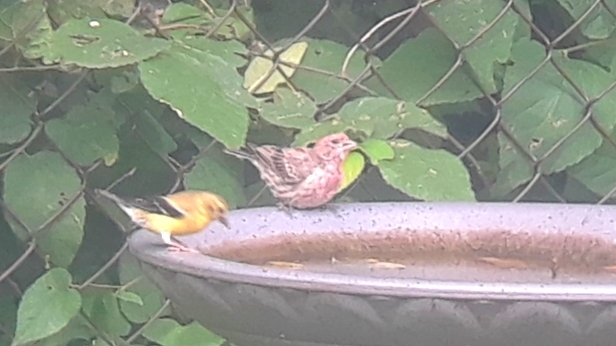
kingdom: Animalia
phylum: Chordata
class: Aves
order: Passeriformes
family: Fringillidae
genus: Haemorhous
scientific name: Haemorhous mexicanus
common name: House finch
